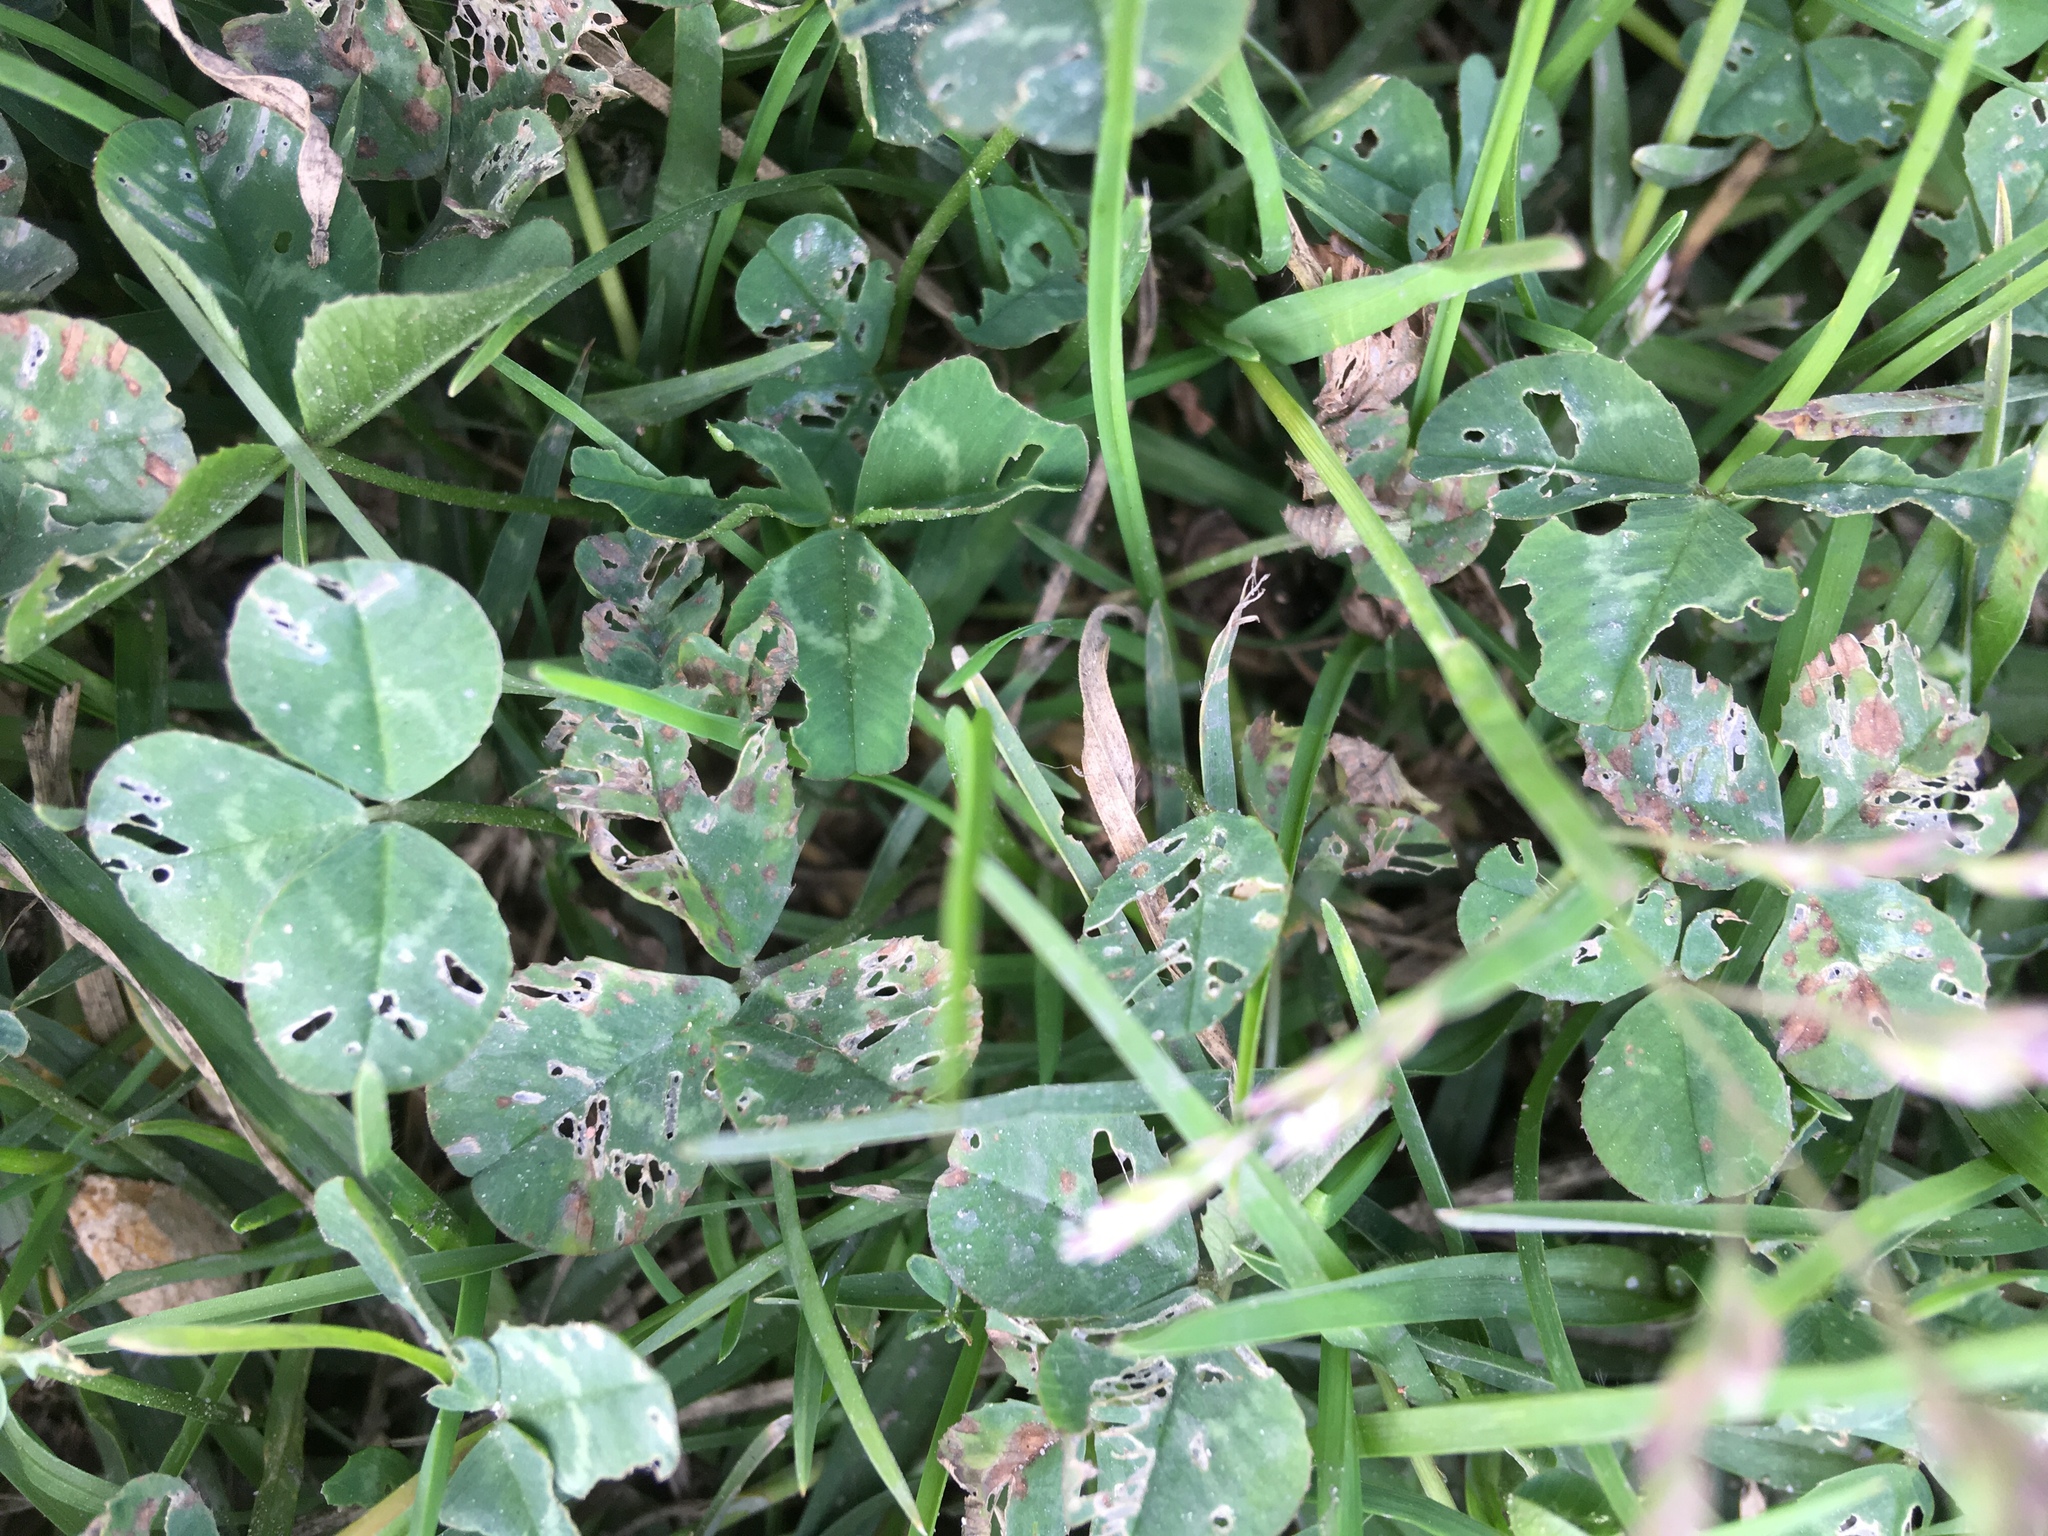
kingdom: Plantae
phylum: Tracheophyta
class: Magnoliopsida
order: Fabales
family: Fabaceae
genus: Trifolium
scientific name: Trifolium repens
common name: White clover
